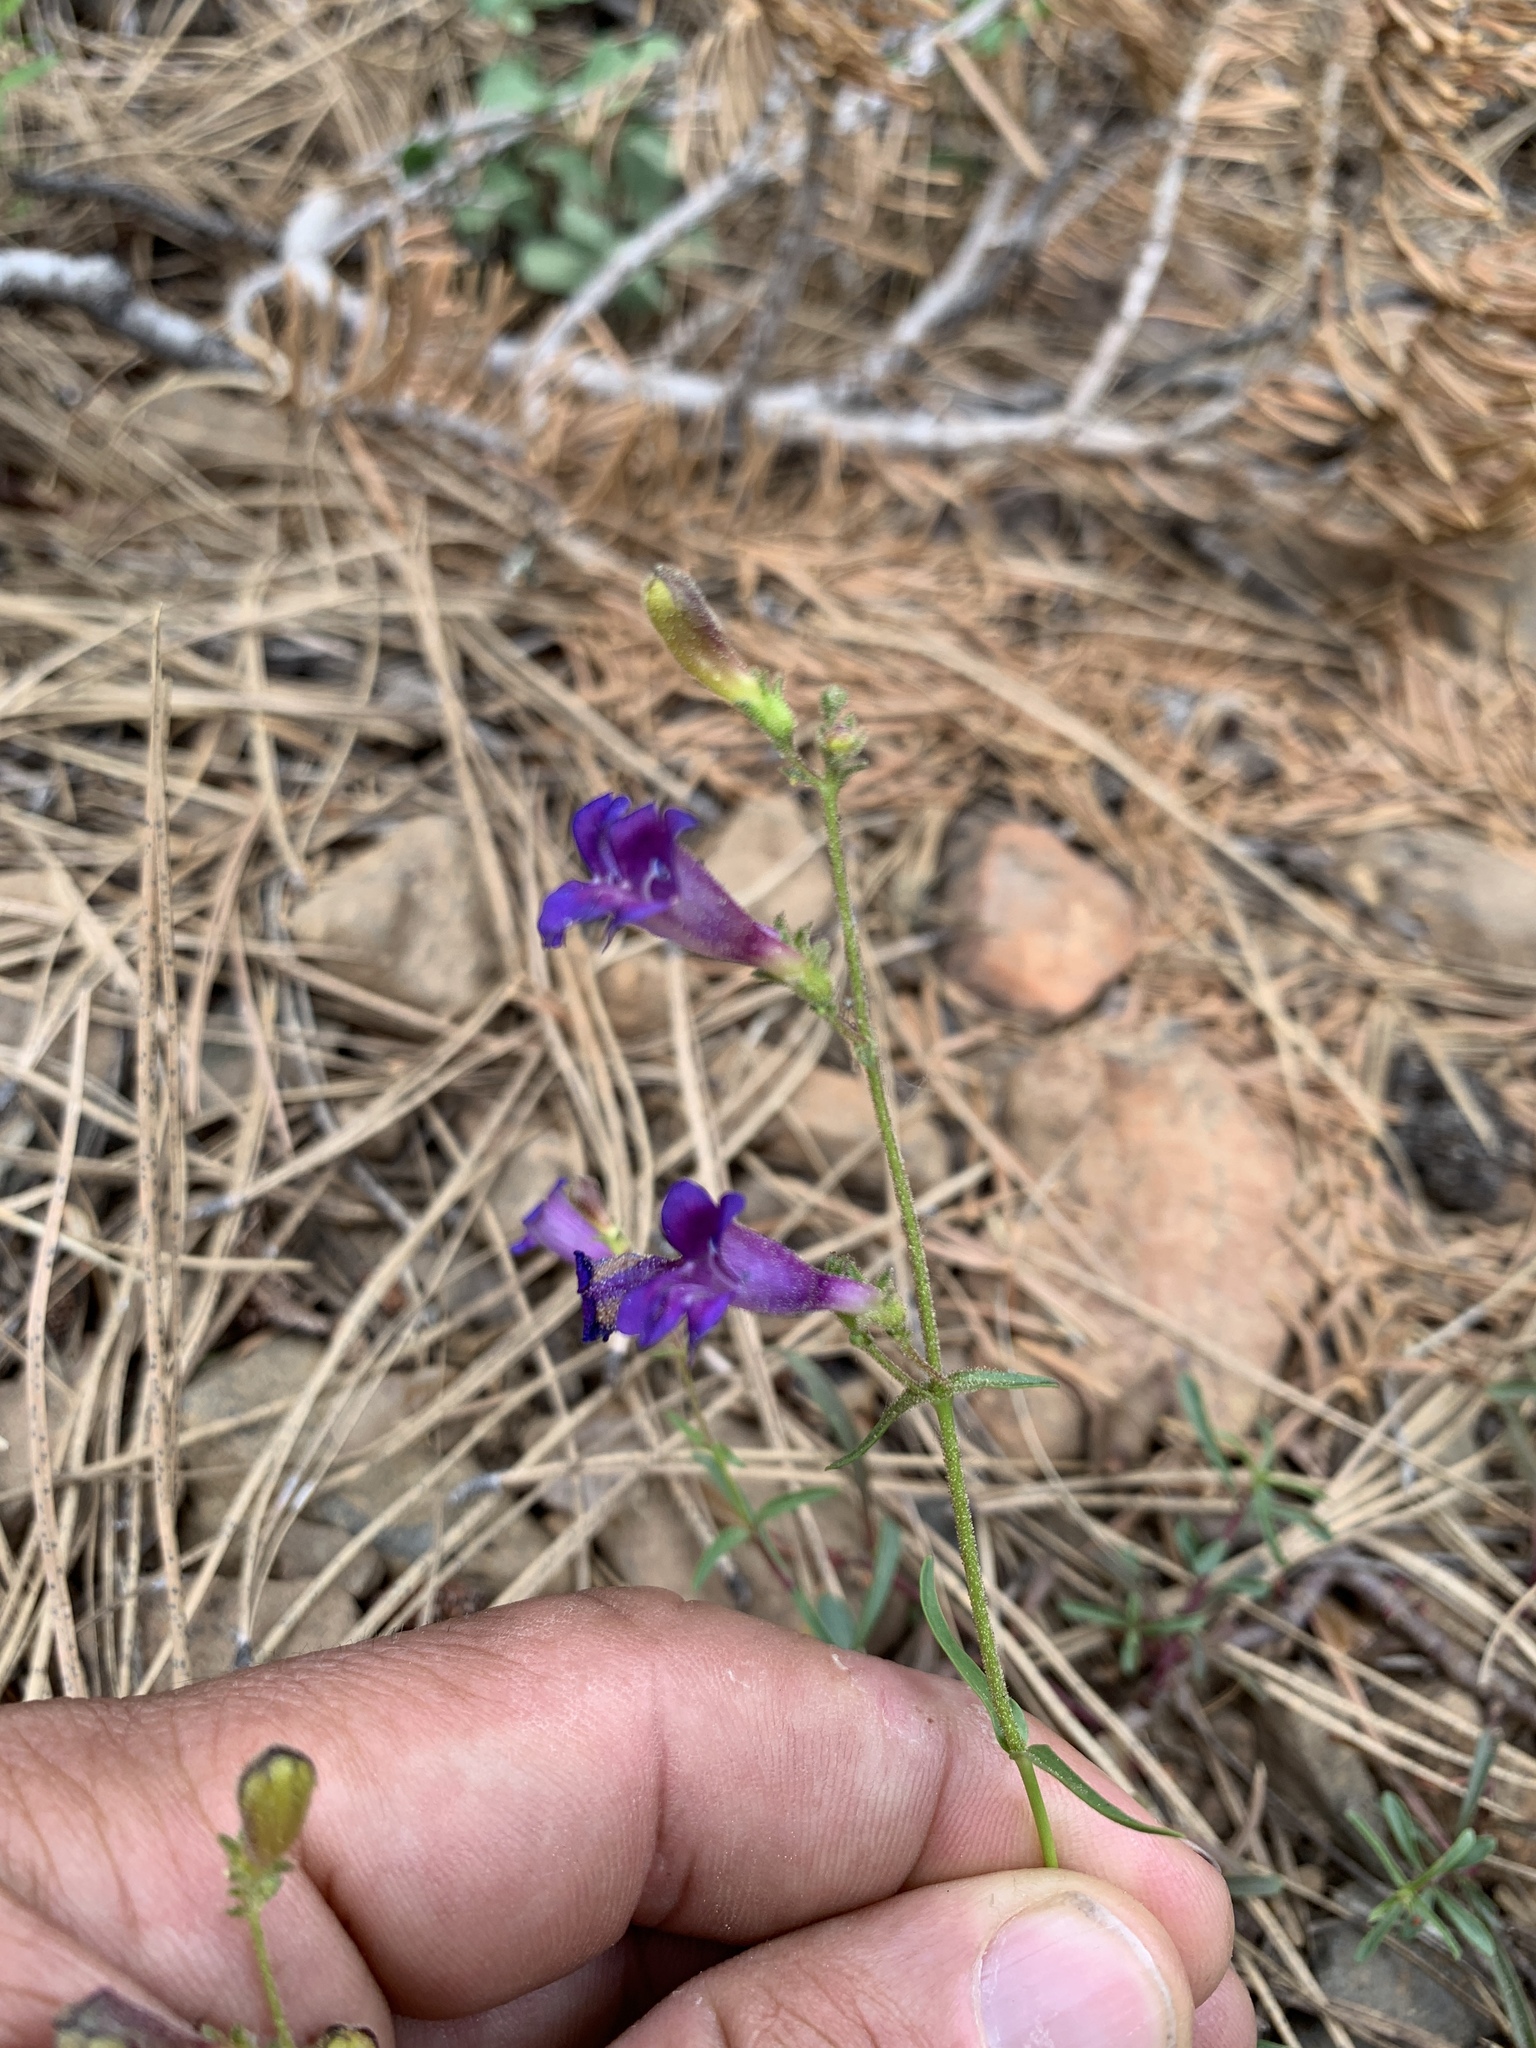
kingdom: Plantae
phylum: Tracheophyta
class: Magnoliopsida
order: Lamiales
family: Plantaginaceae
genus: Penstemon
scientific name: Penstemon roezlii
